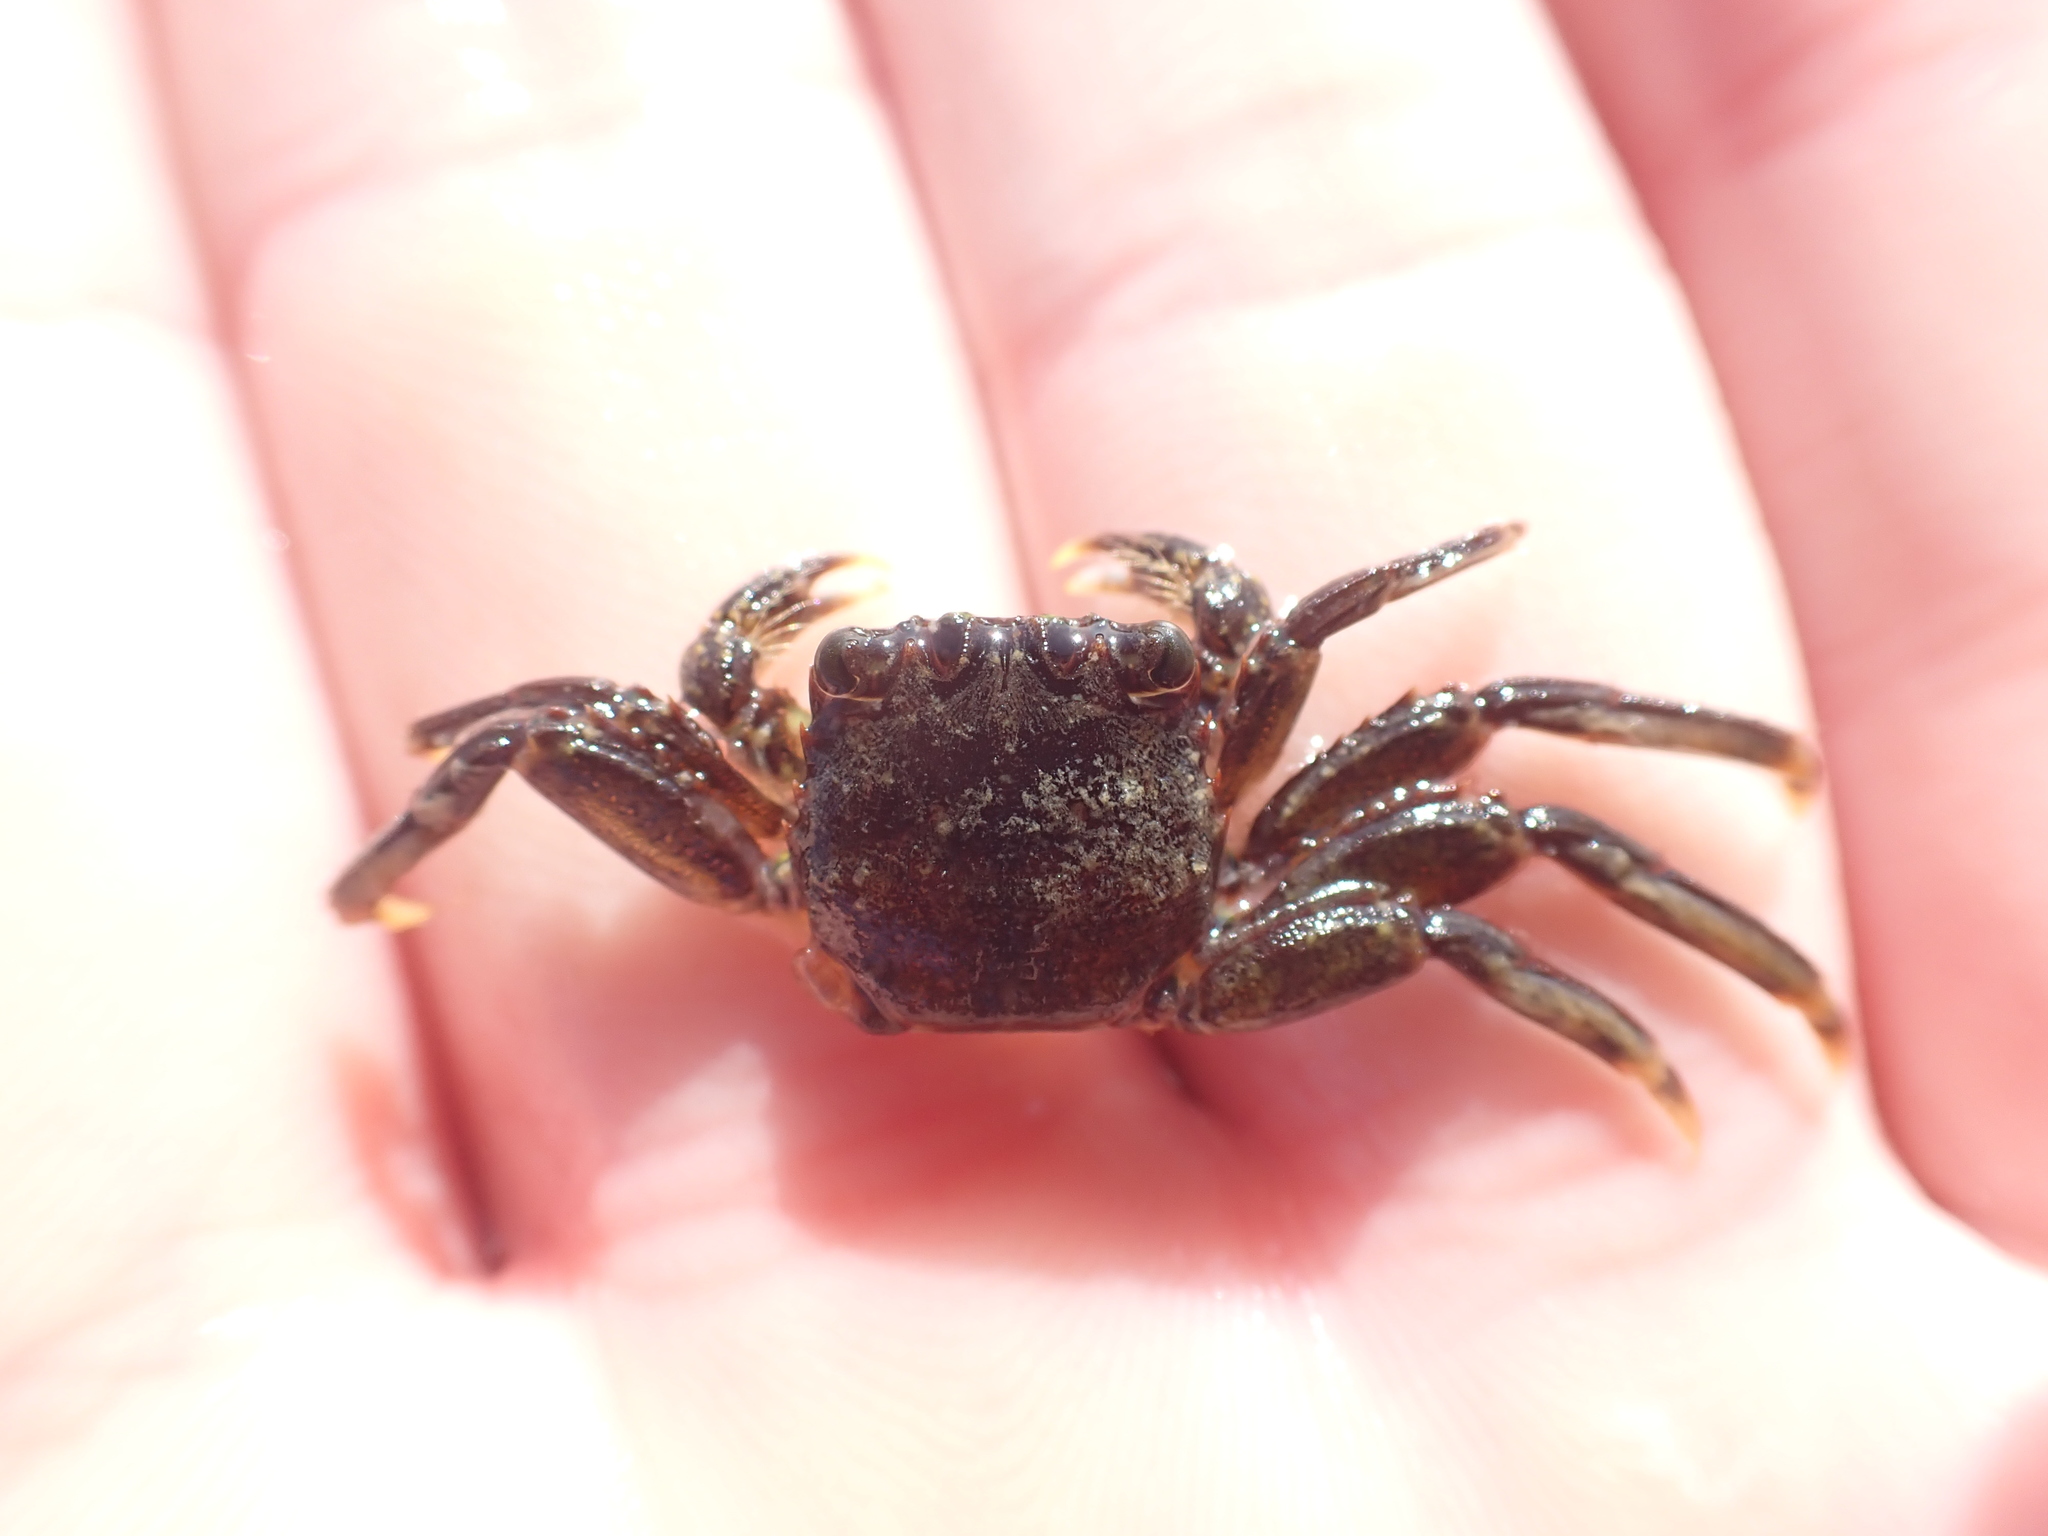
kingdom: Animalia
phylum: Arthropoda
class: Malacostraca
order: Decapoda
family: Plagusiidae
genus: Guinusia
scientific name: Guinusia chabrus
